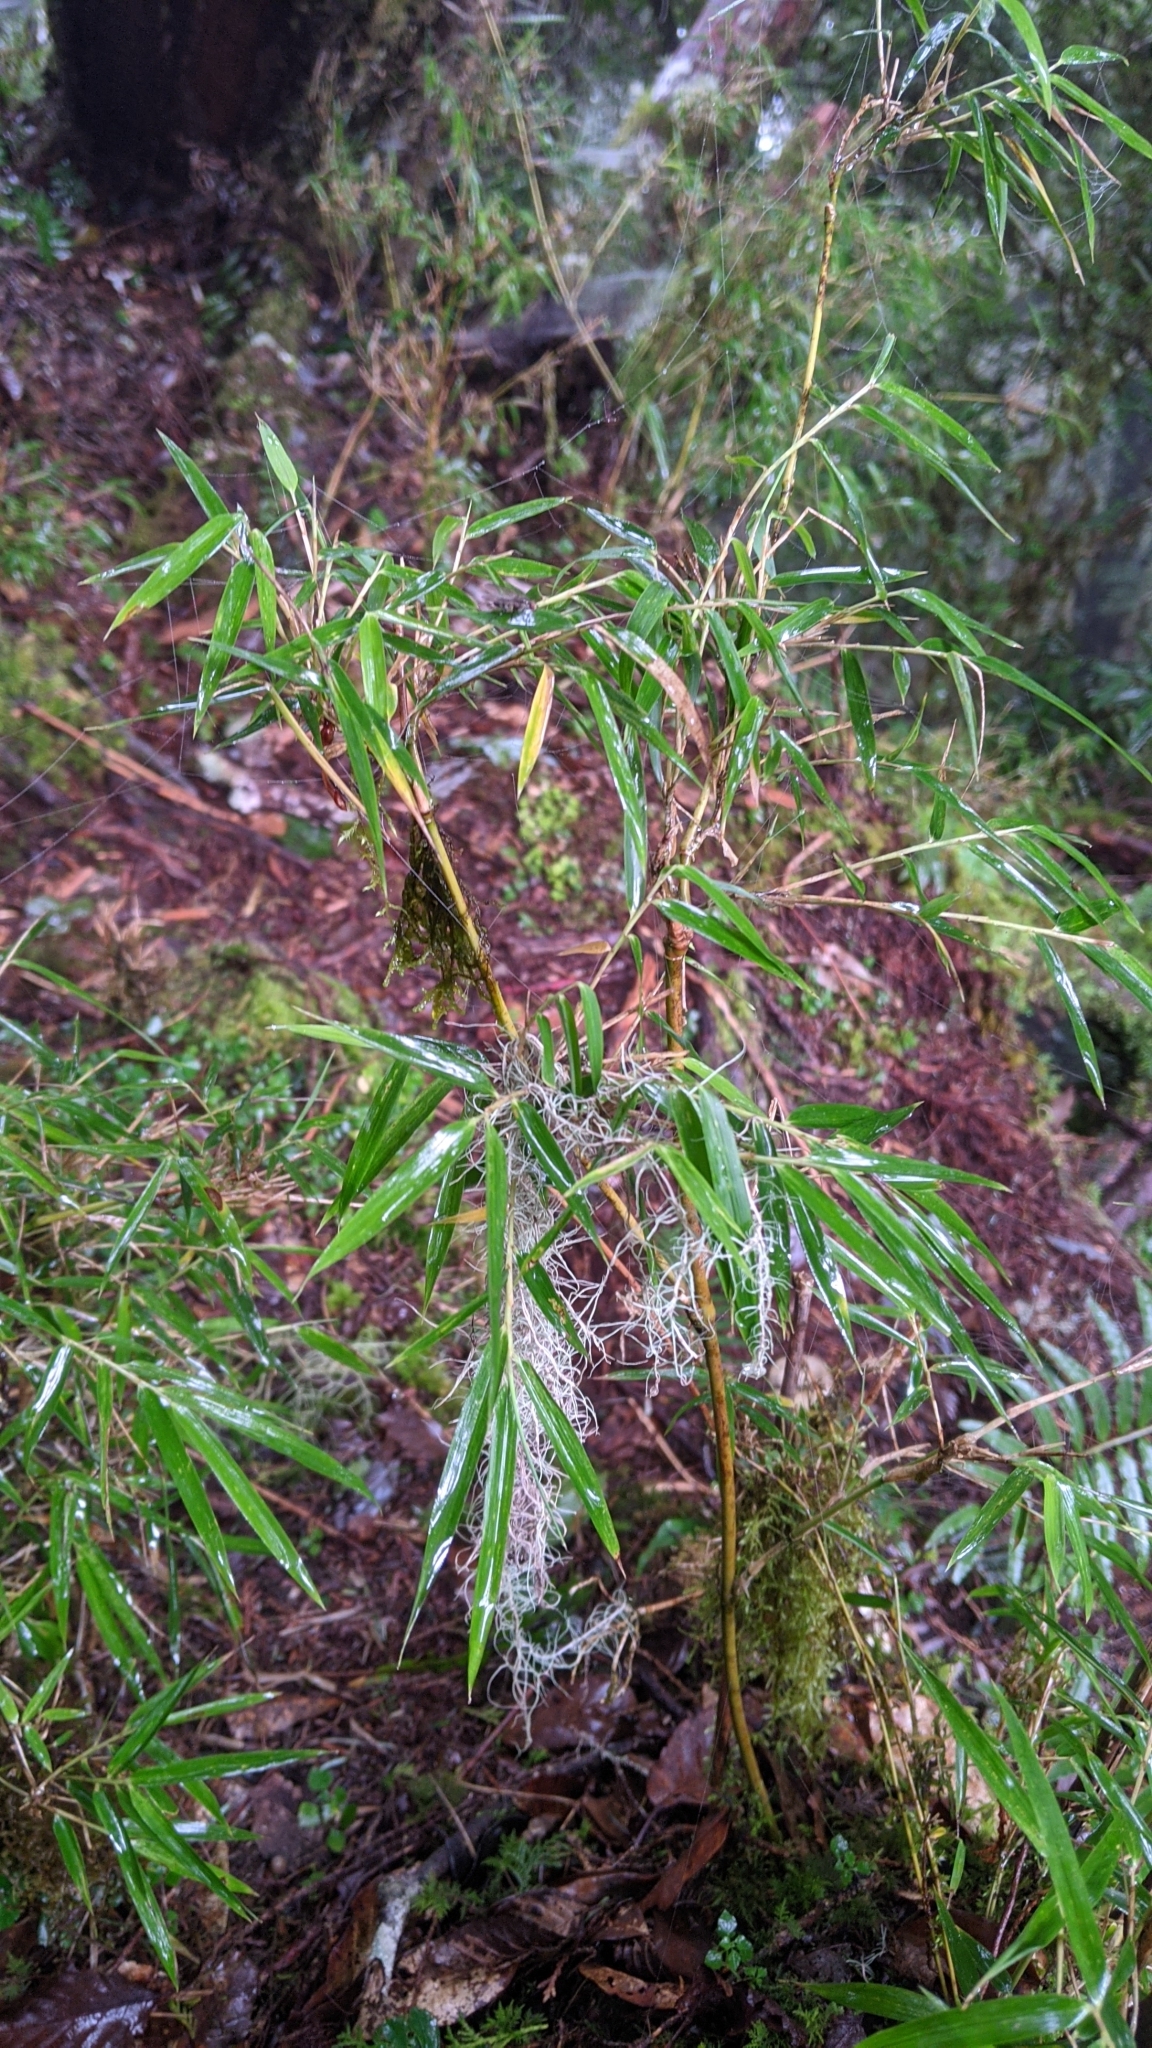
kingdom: Plantae
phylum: Tracheophyta
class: Liliopsida
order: Poales
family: Poaceae
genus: Yushania
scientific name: Yushania niitakayamensis
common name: Yushan cane
